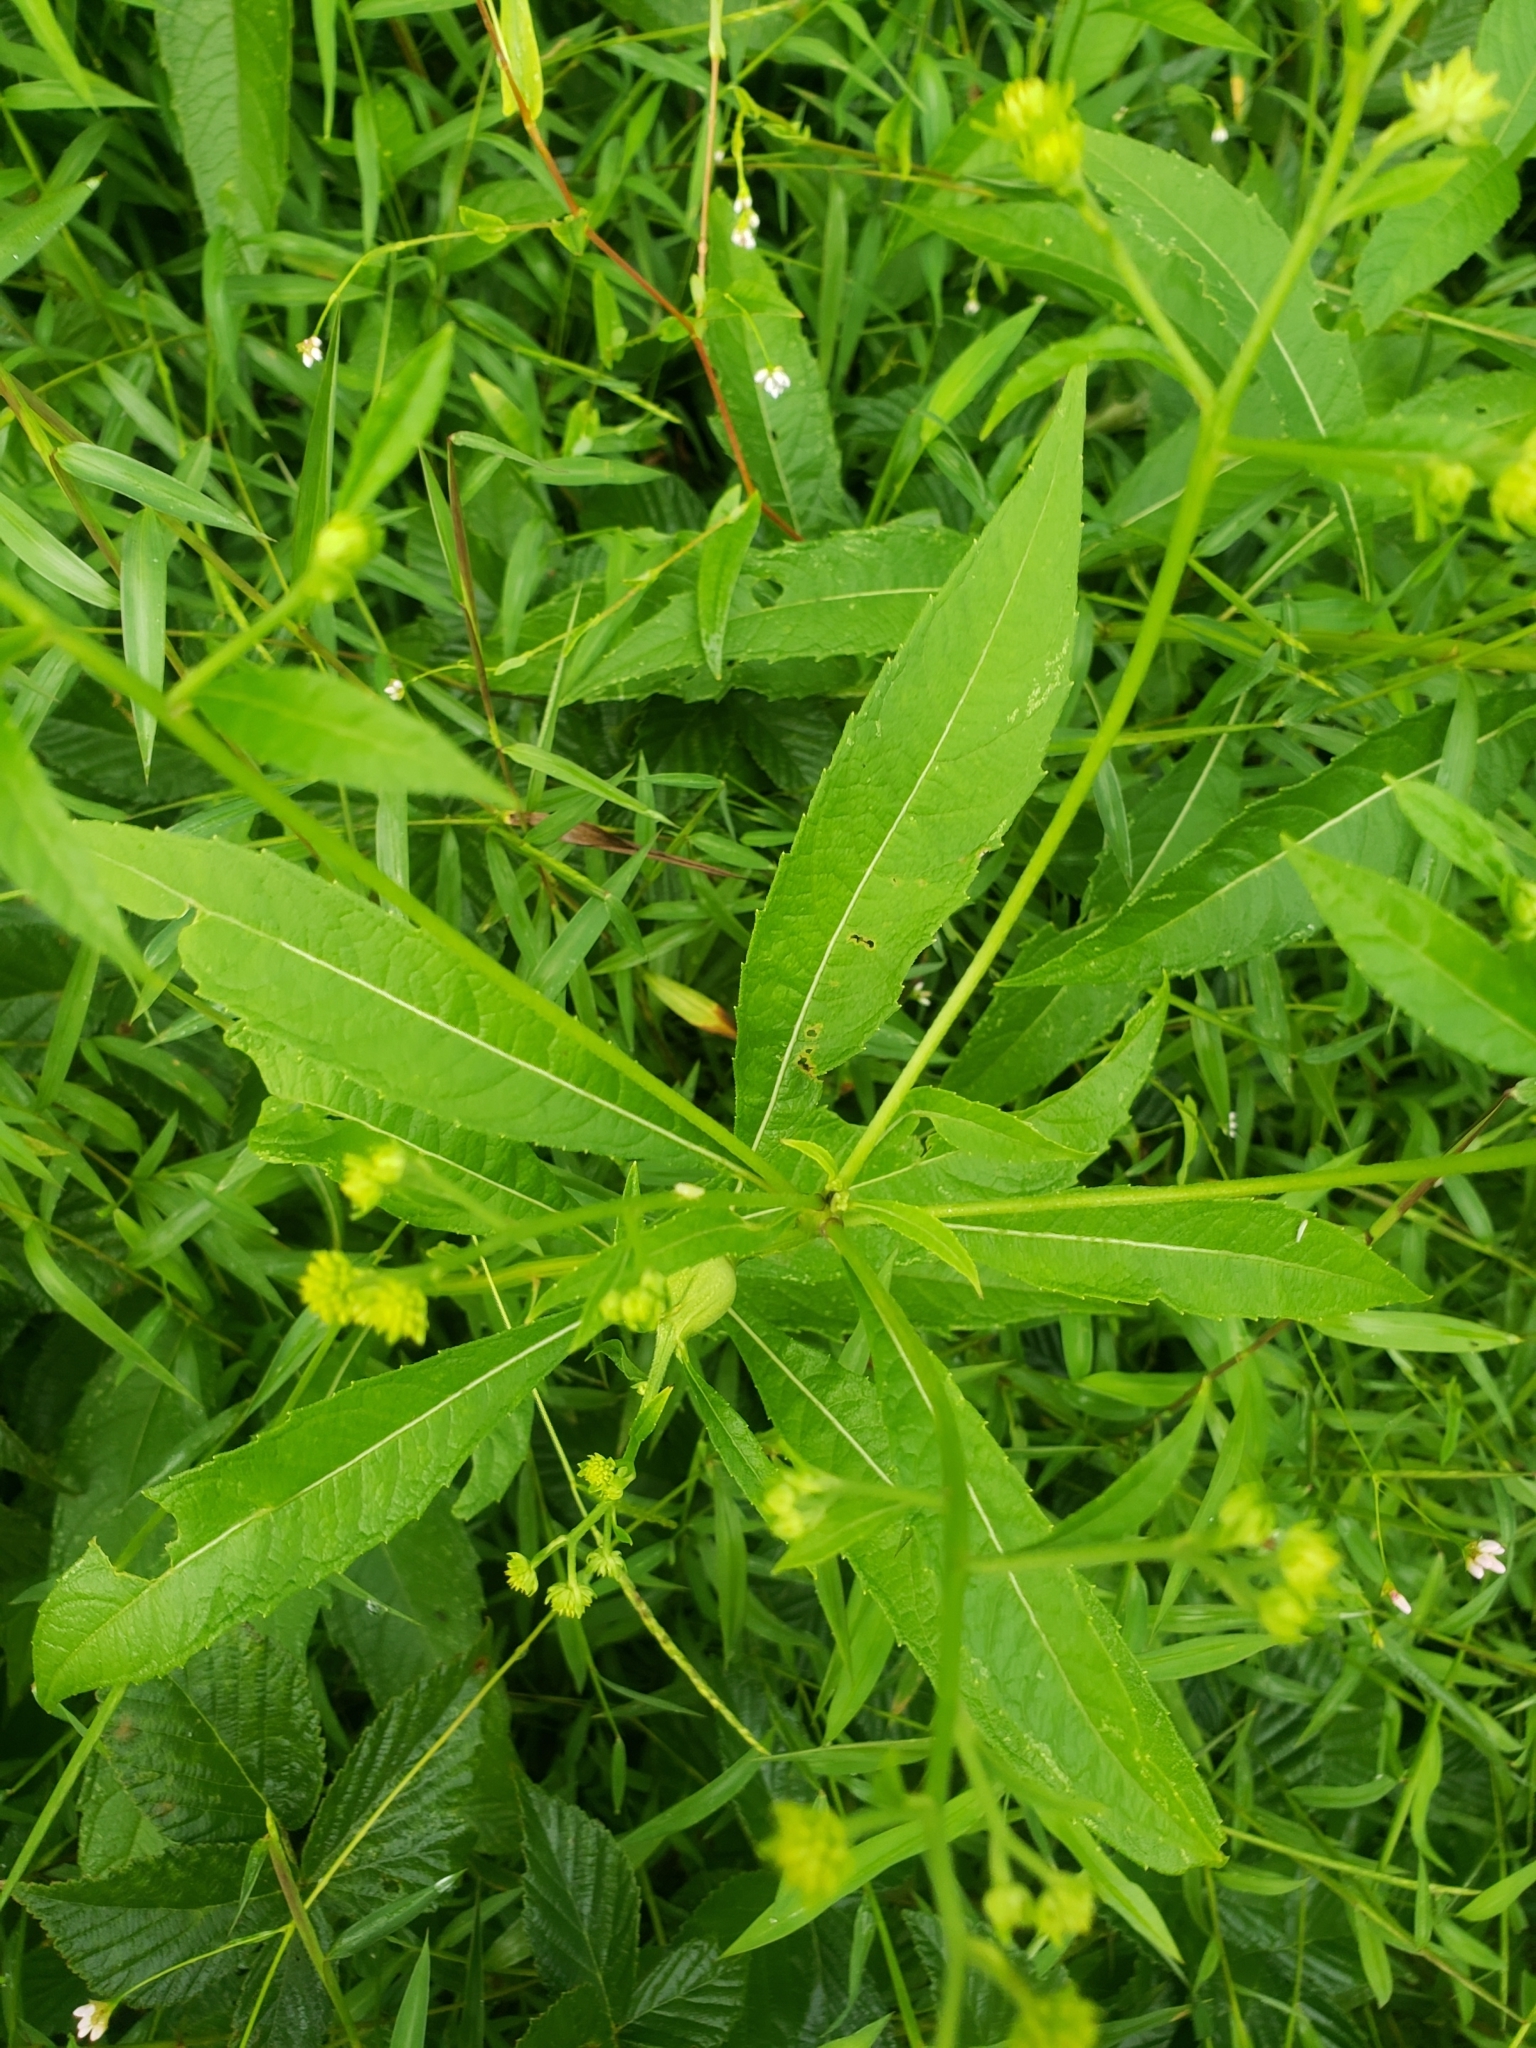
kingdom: Animalia
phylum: Arthropoda
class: Insecta
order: Diptera
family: Cecidomyiidae
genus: Neolasioptera
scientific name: Neolasioptera verbesinae
